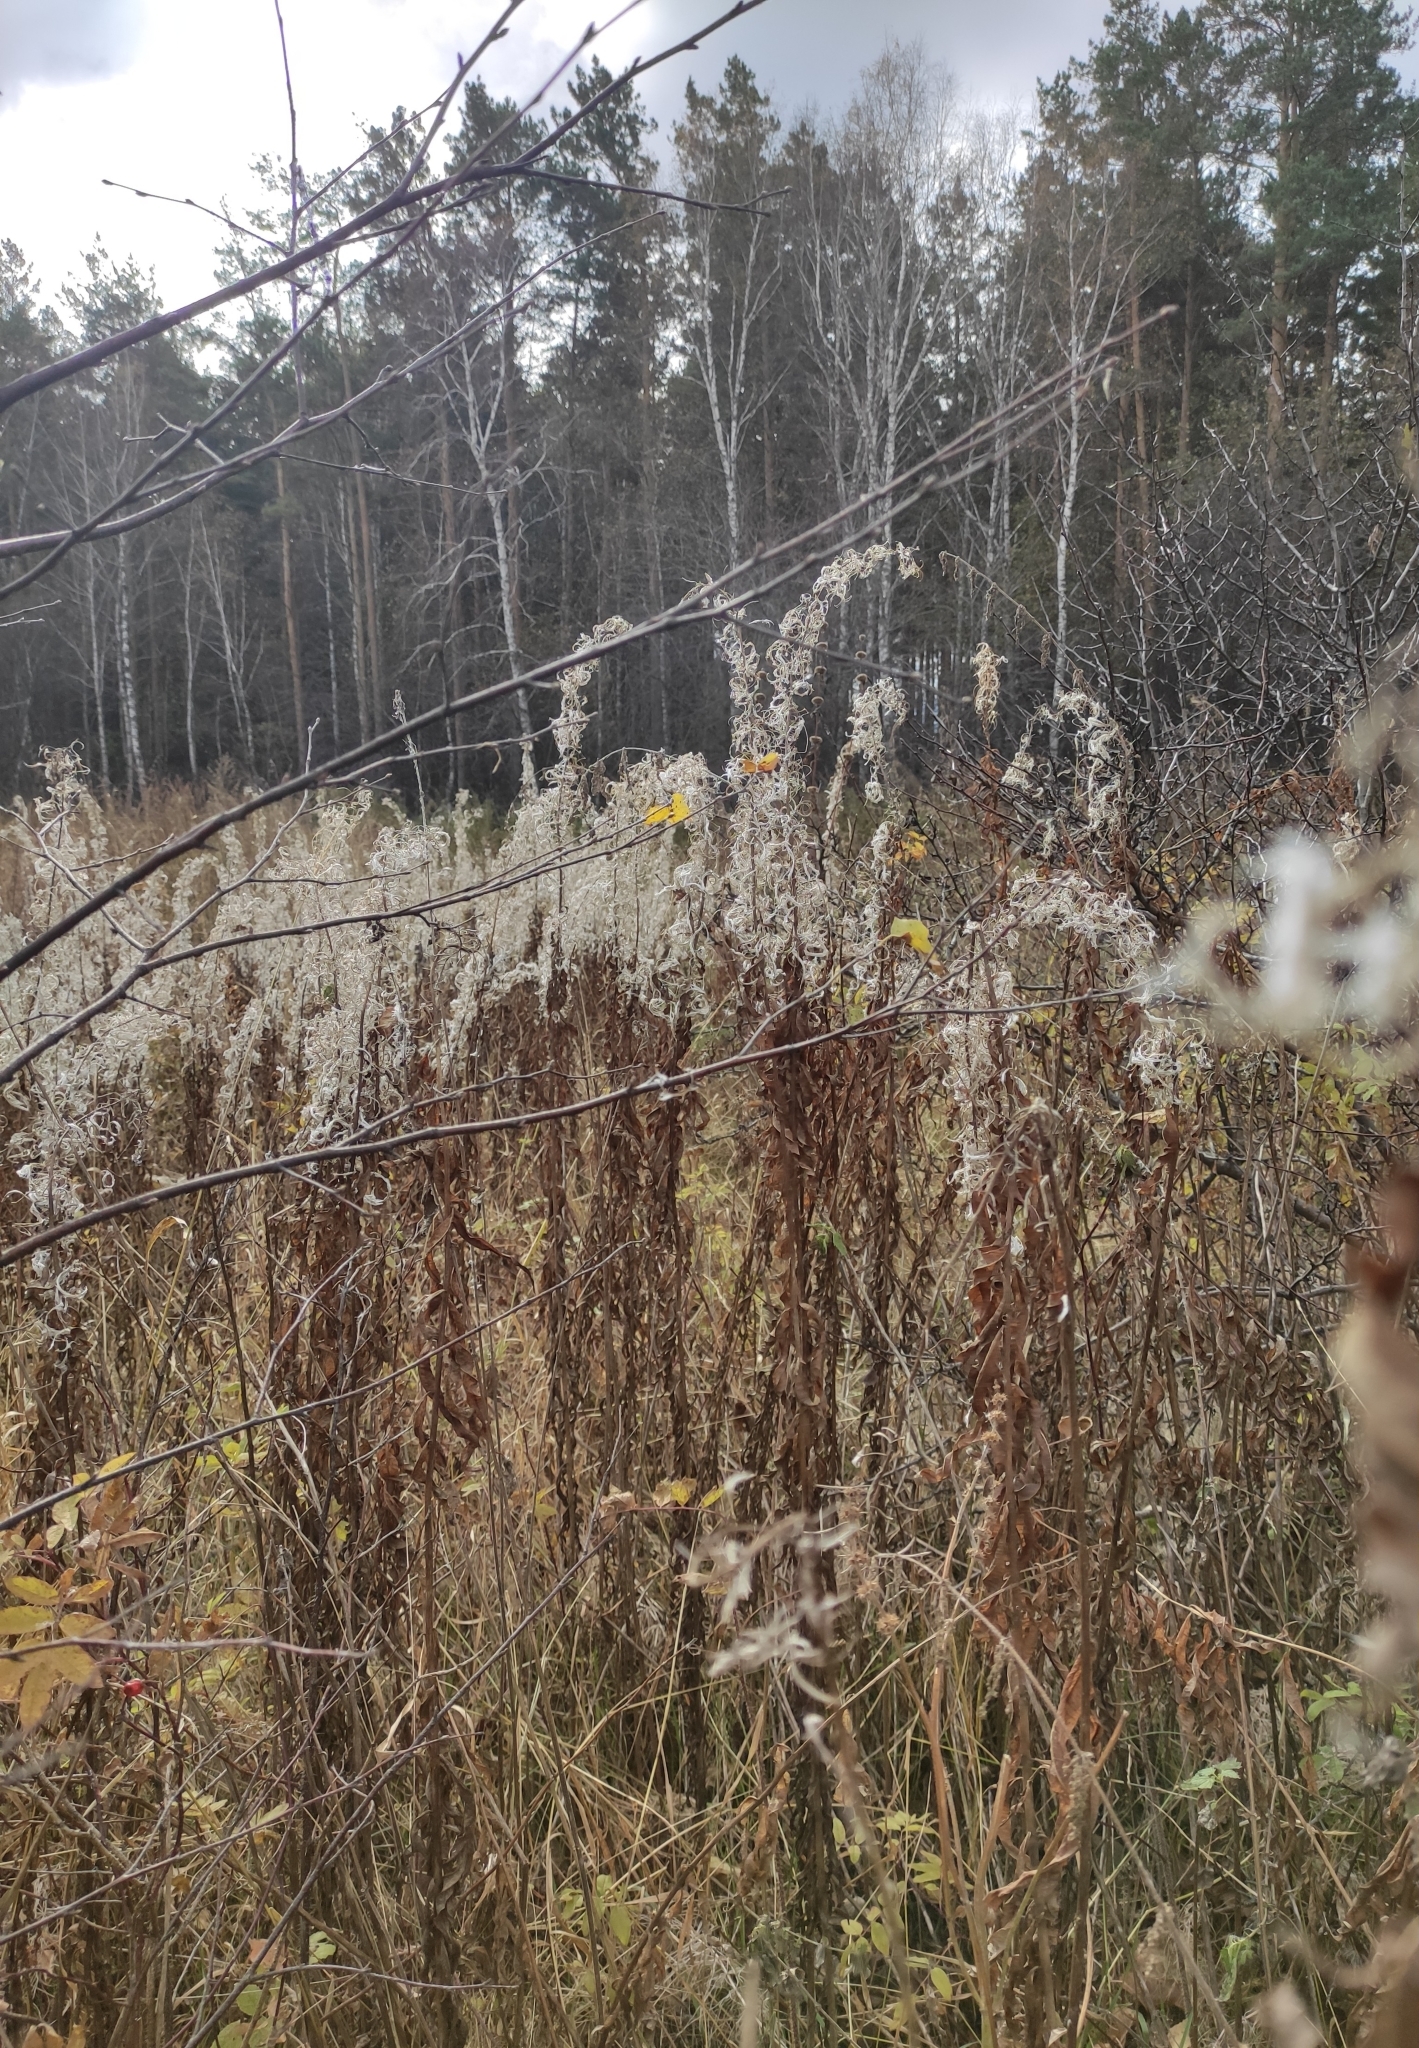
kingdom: Plantae
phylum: Tracheophyta
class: Magnoliopsida
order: Myrtales
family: Onagraceae
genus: Chamaenerion
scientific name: Chamaenerion angustifolium
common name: Fireweed
